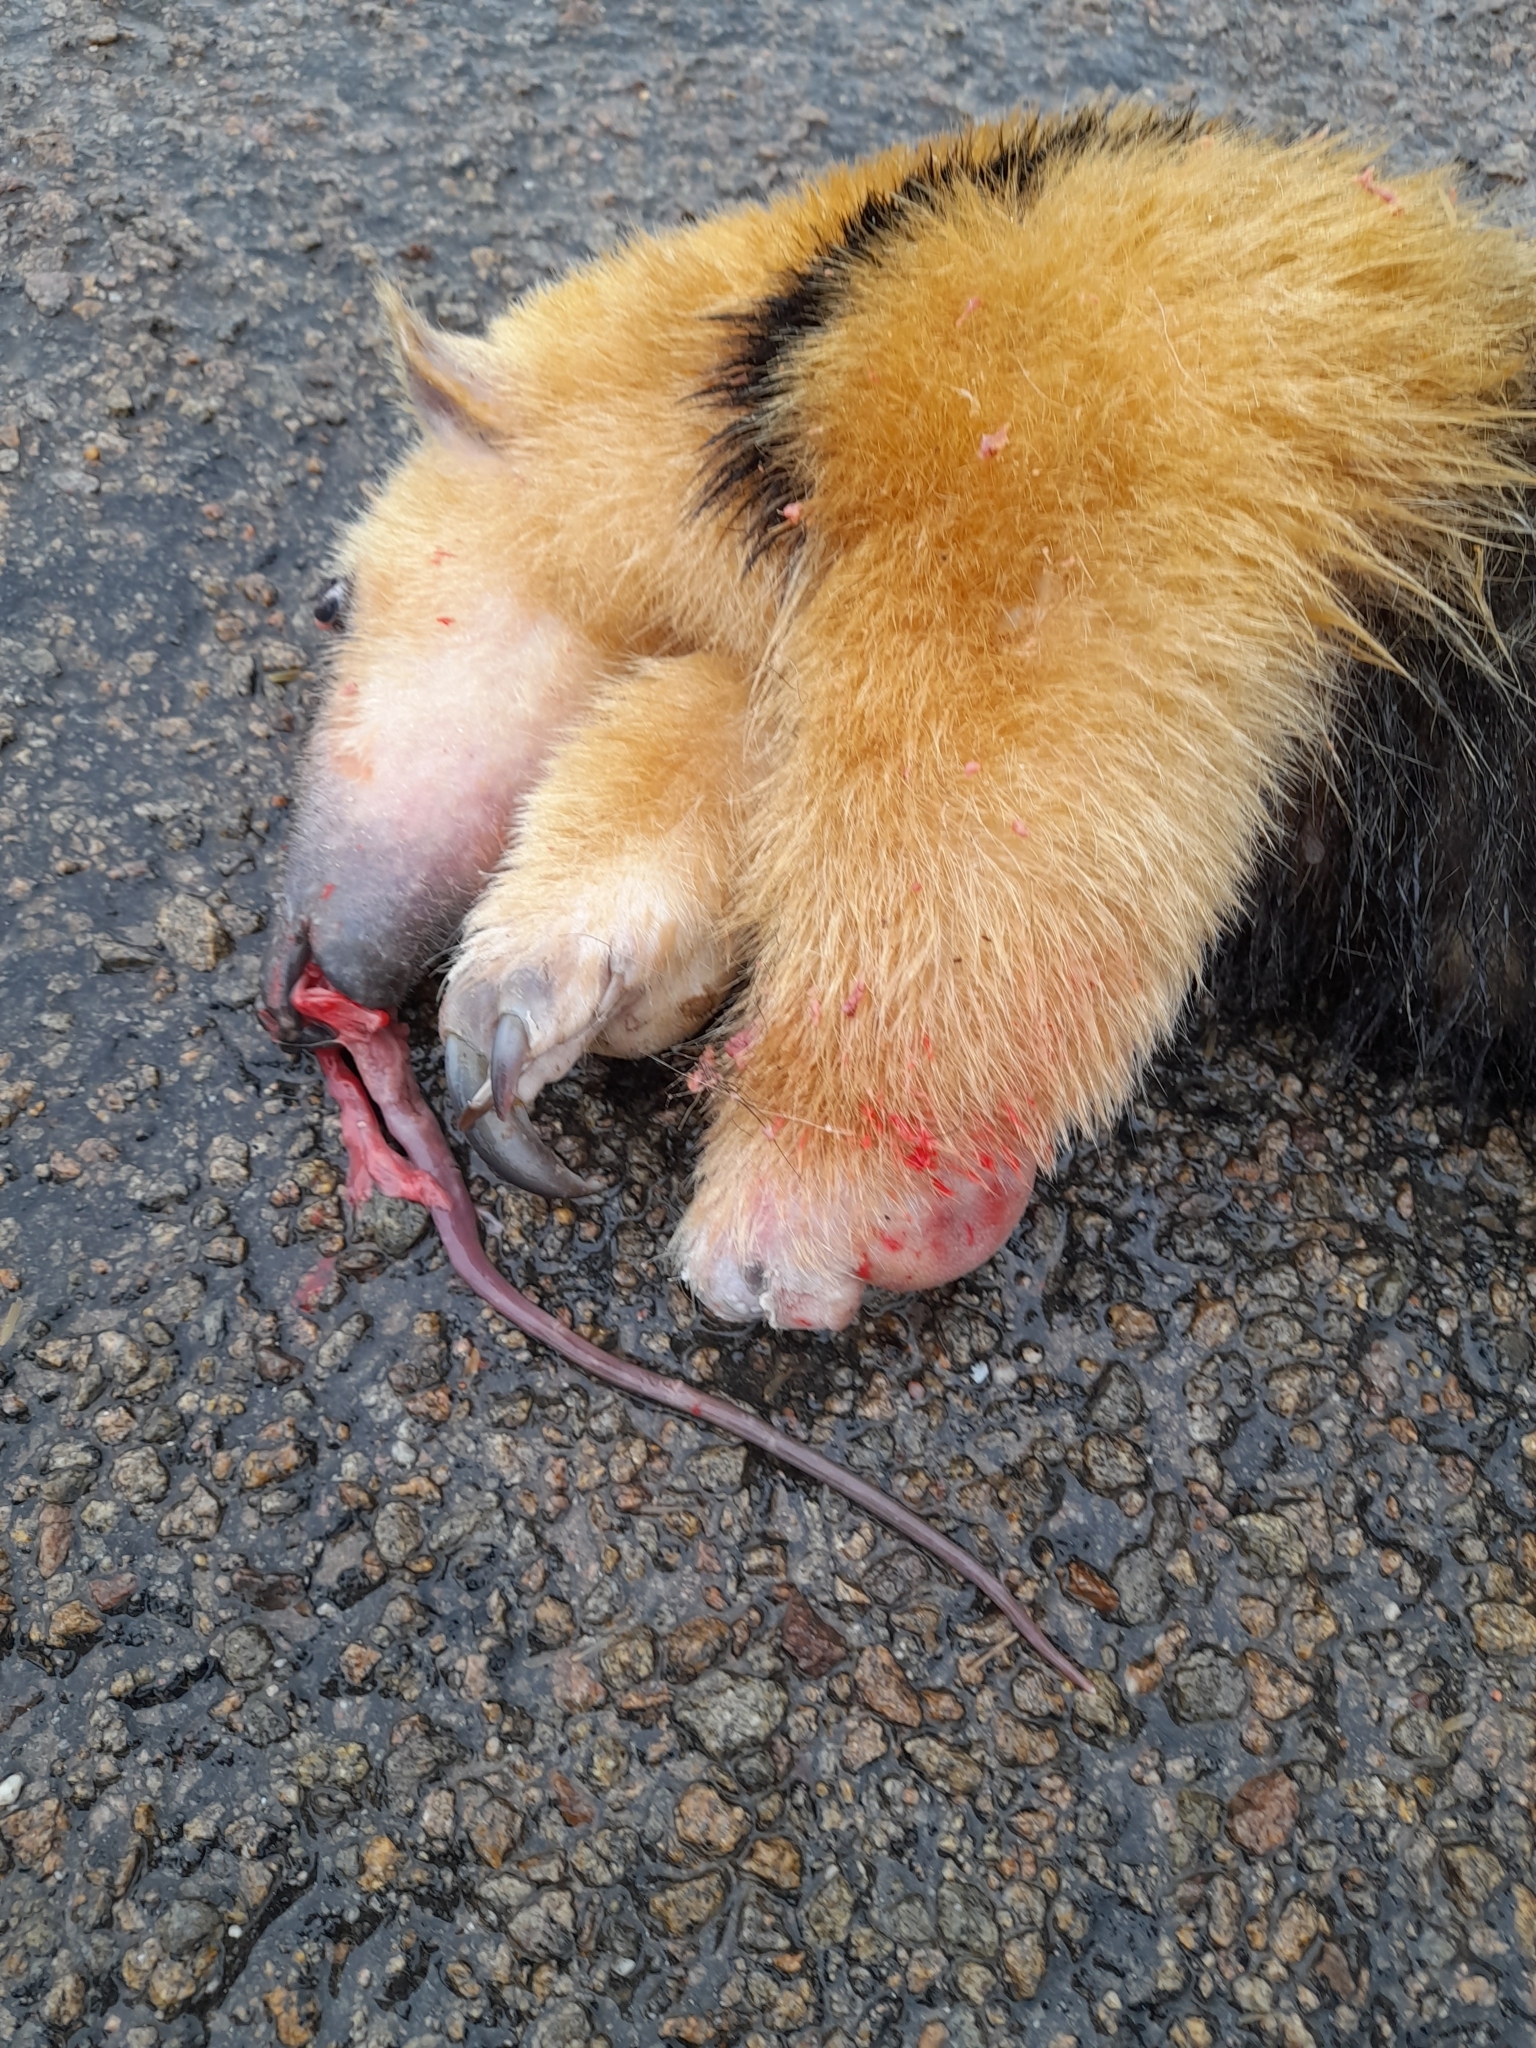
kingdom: Animalia
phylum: Chordata
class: Mammalia
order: Pilosa
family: Myrmecophagidae
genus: Tamandua
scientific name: Tamandua tetradactyla
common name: Southern tamandua
